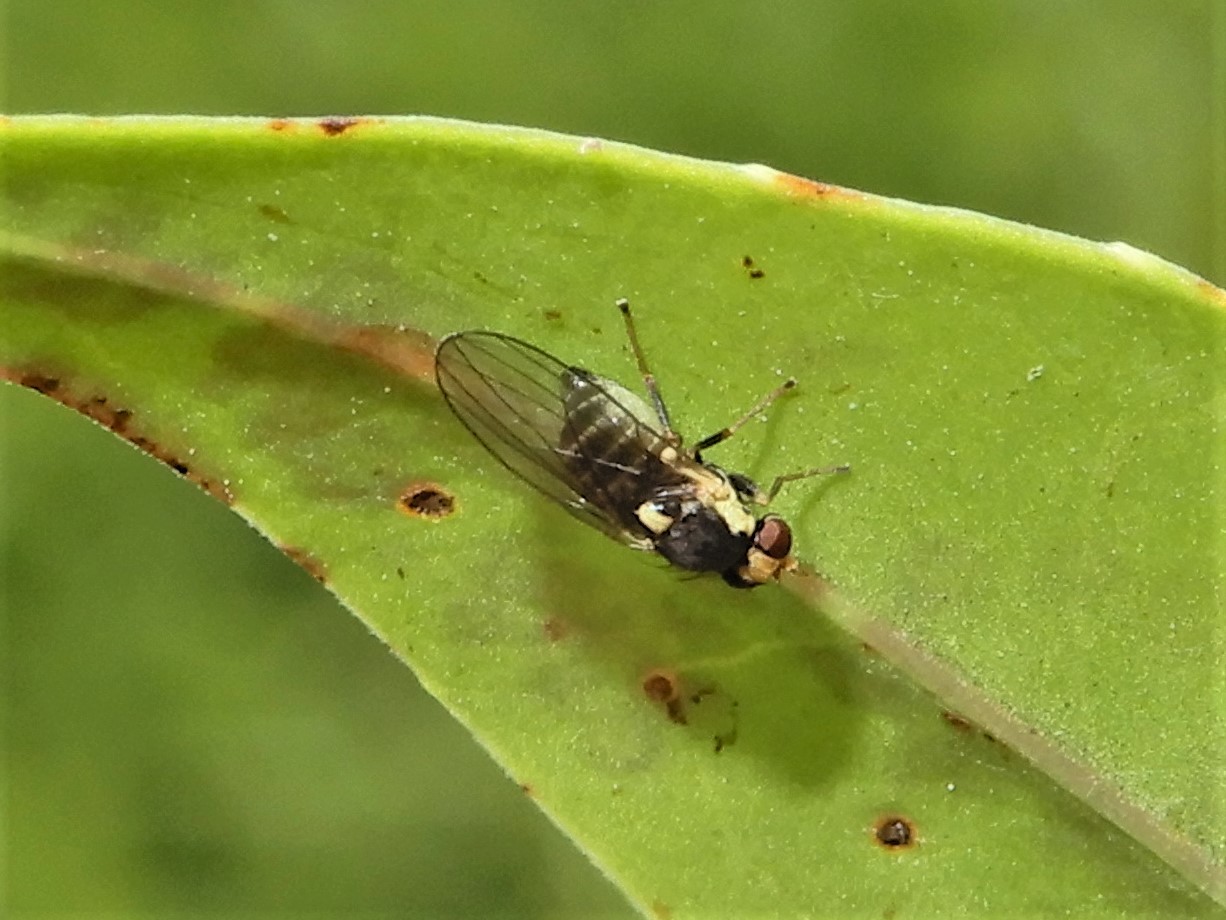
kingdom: Animalia
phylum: Arthropoda
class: Insecta
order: Diptera
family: Agromyzidae
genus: Liriomyza
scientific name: Liriomyza flavocentralis
